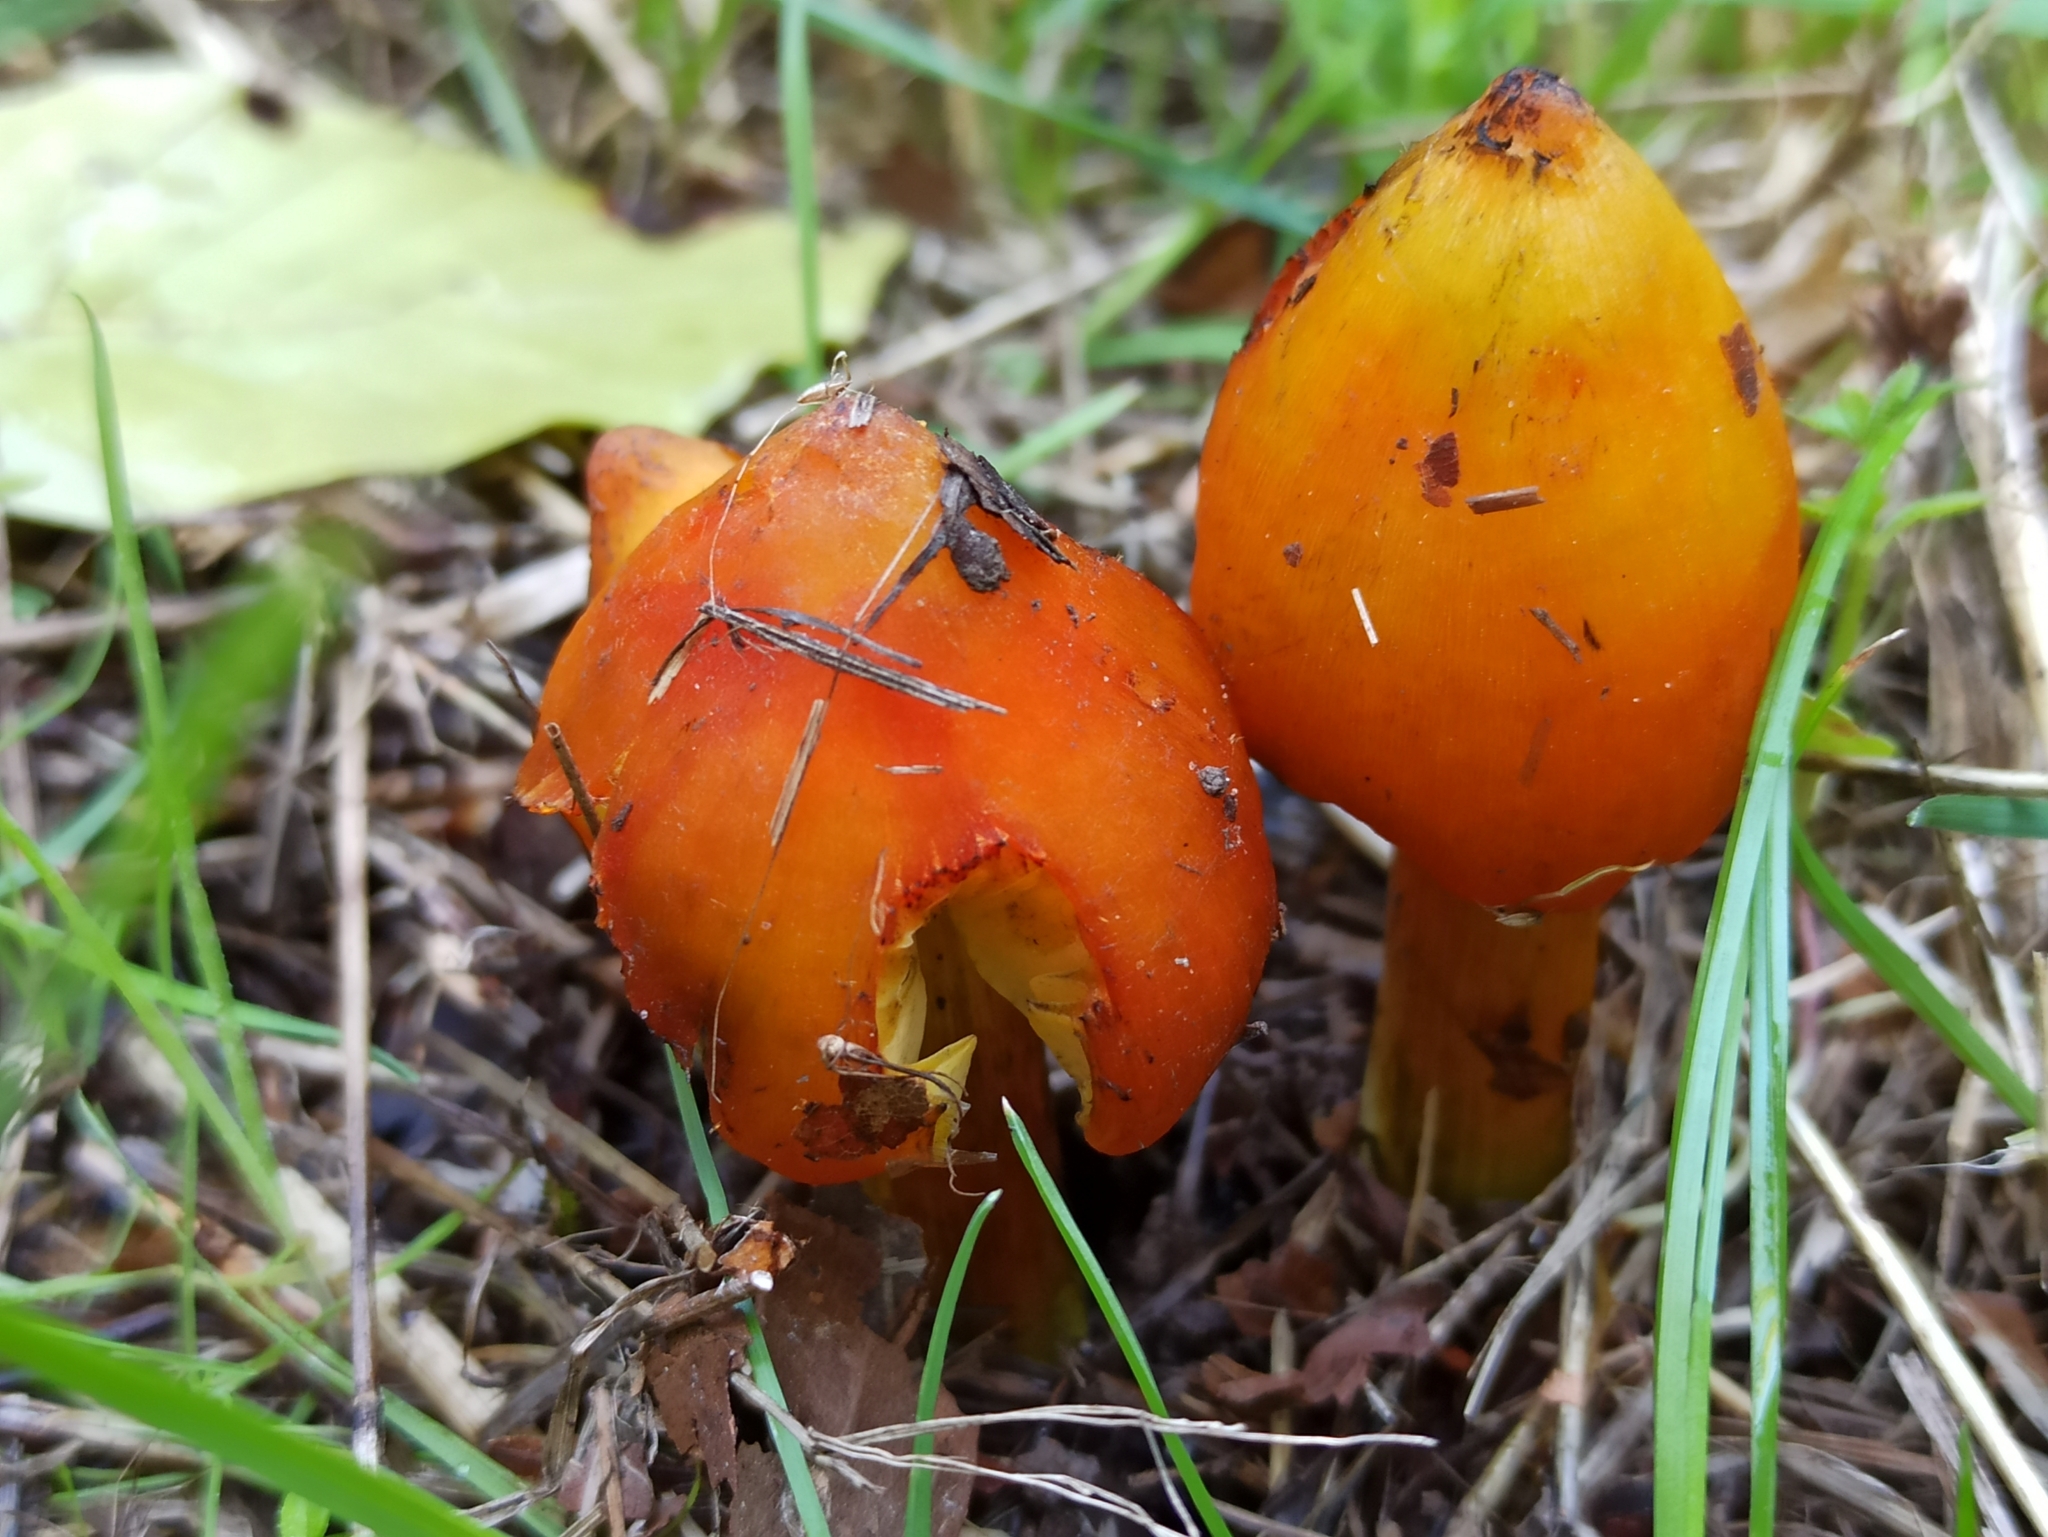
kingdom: Fungi
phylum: Basidiomycota
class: Agaricomycetes
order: Agaricales
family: Hygrophoraceae
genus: Hygrocybe
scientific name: Hygrocybe conica
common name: Blackening wax-cap
